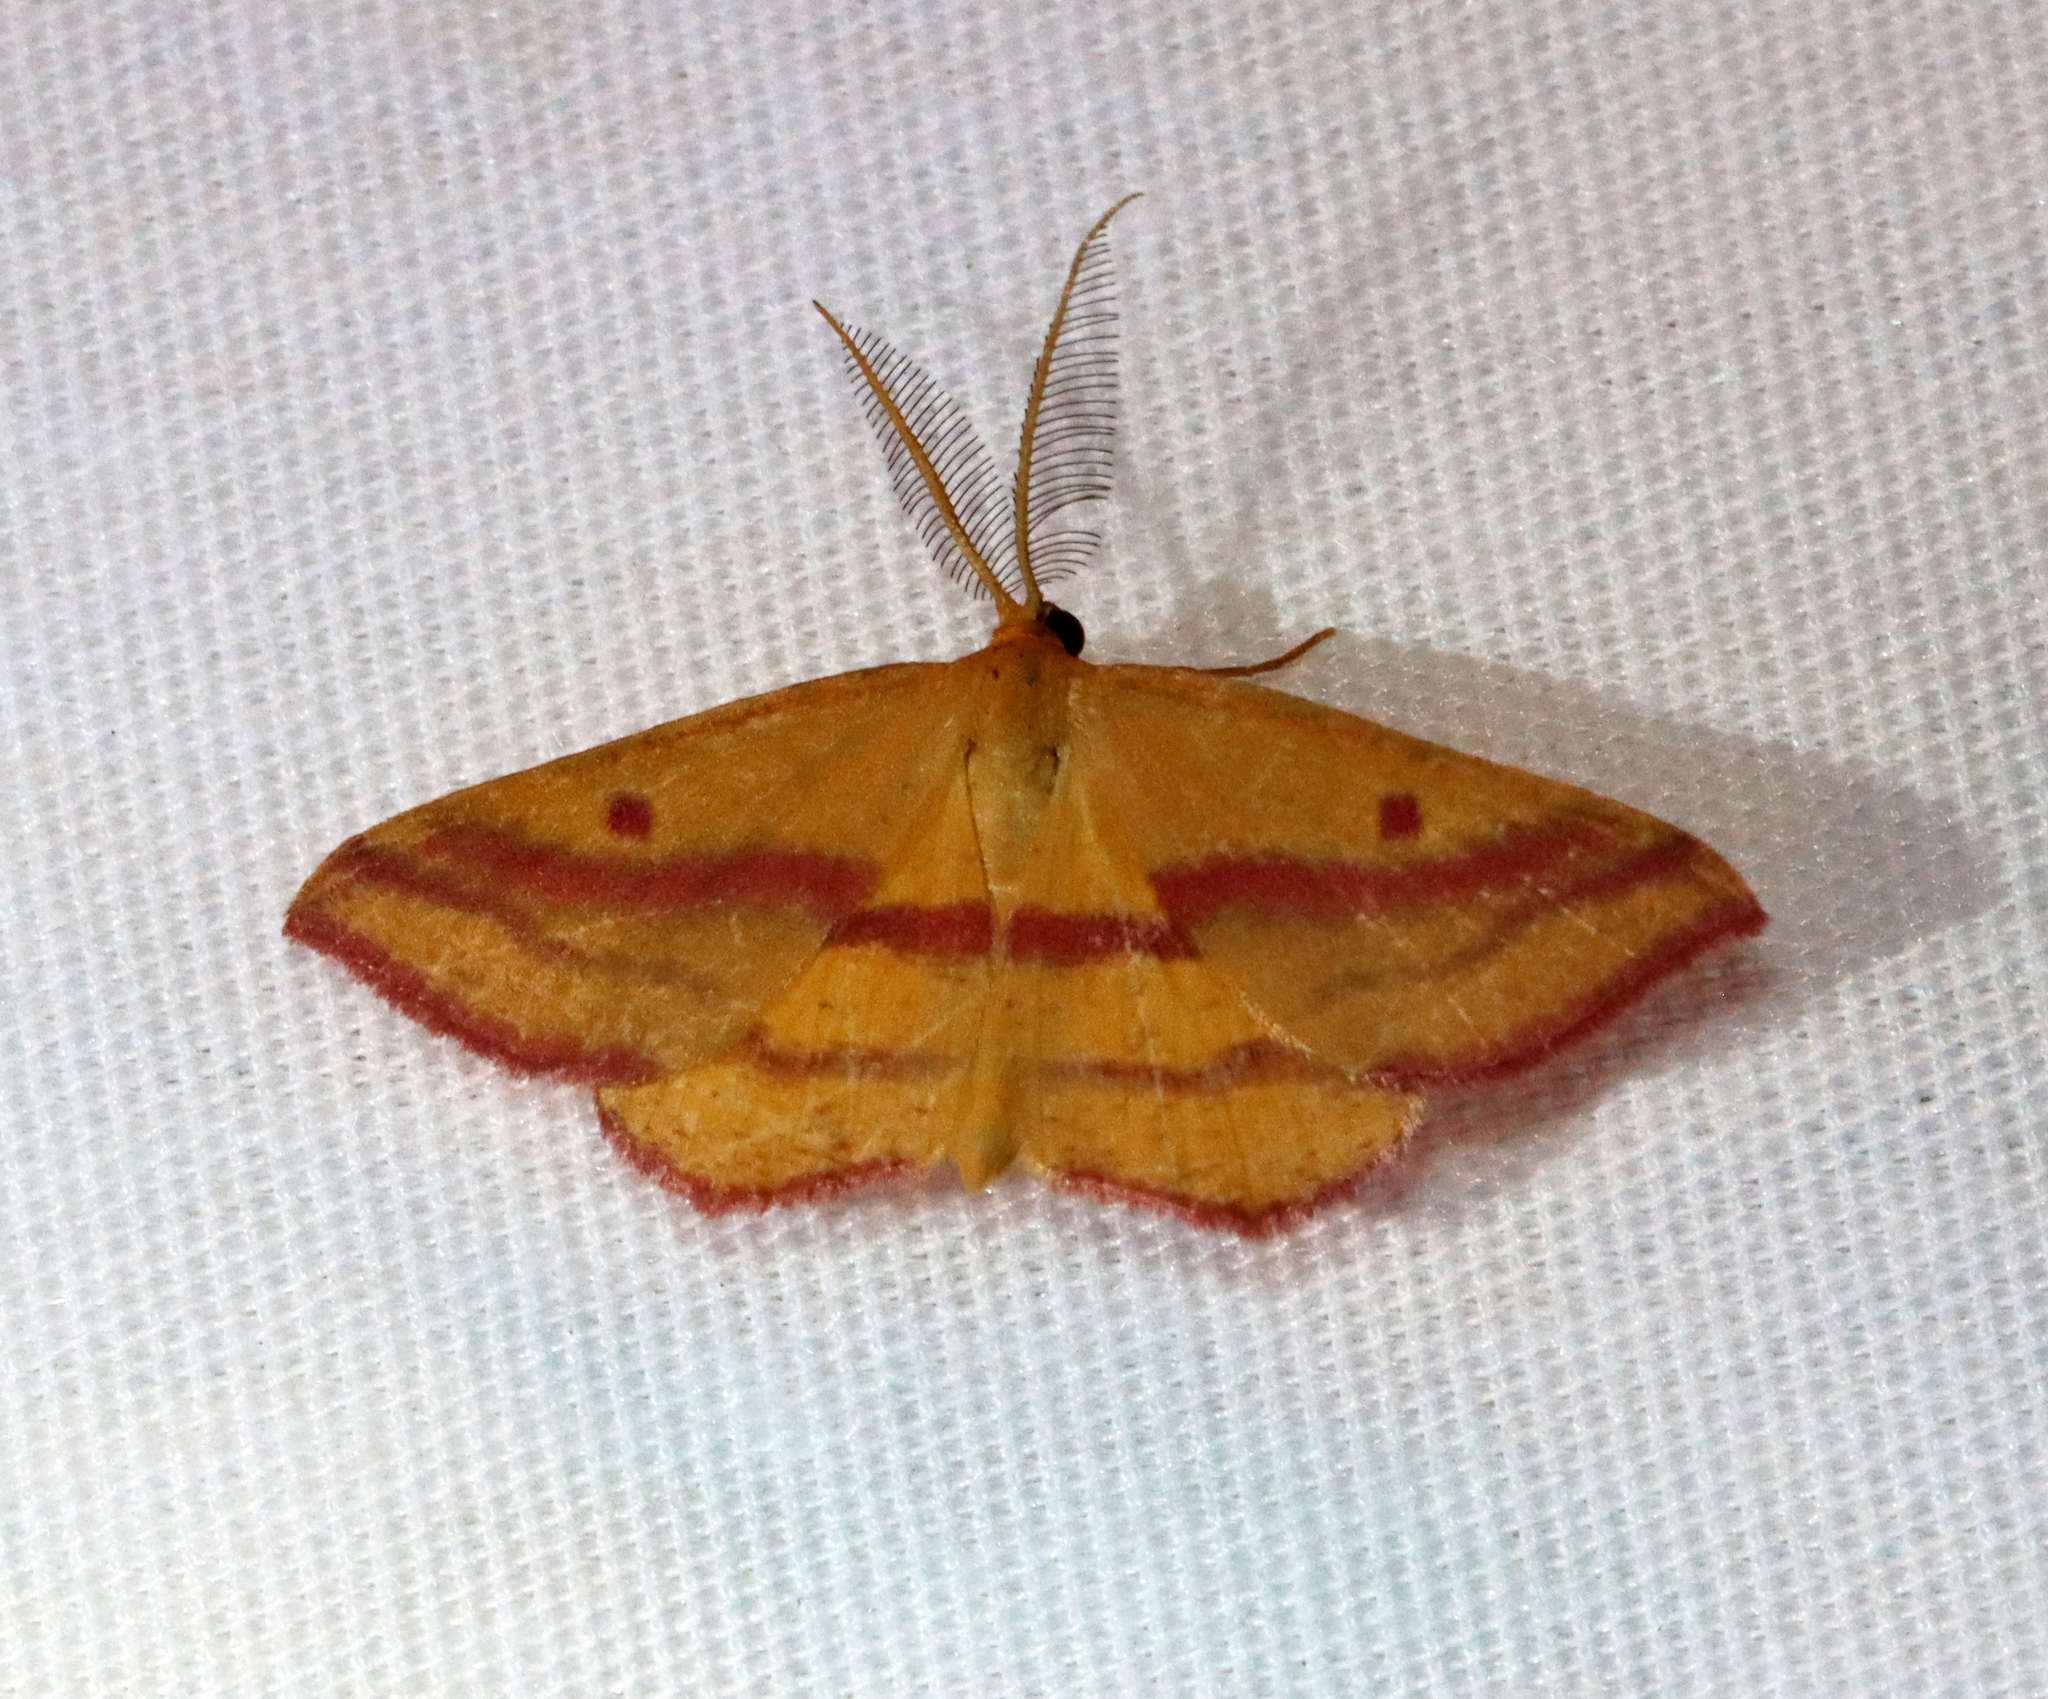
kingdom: Animalia
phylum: Arthropoda
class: Insecta
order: Lepidoptera
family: Geometridae
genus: Haematopis
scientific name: Haematopis grataria
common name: Chickweed geometer
